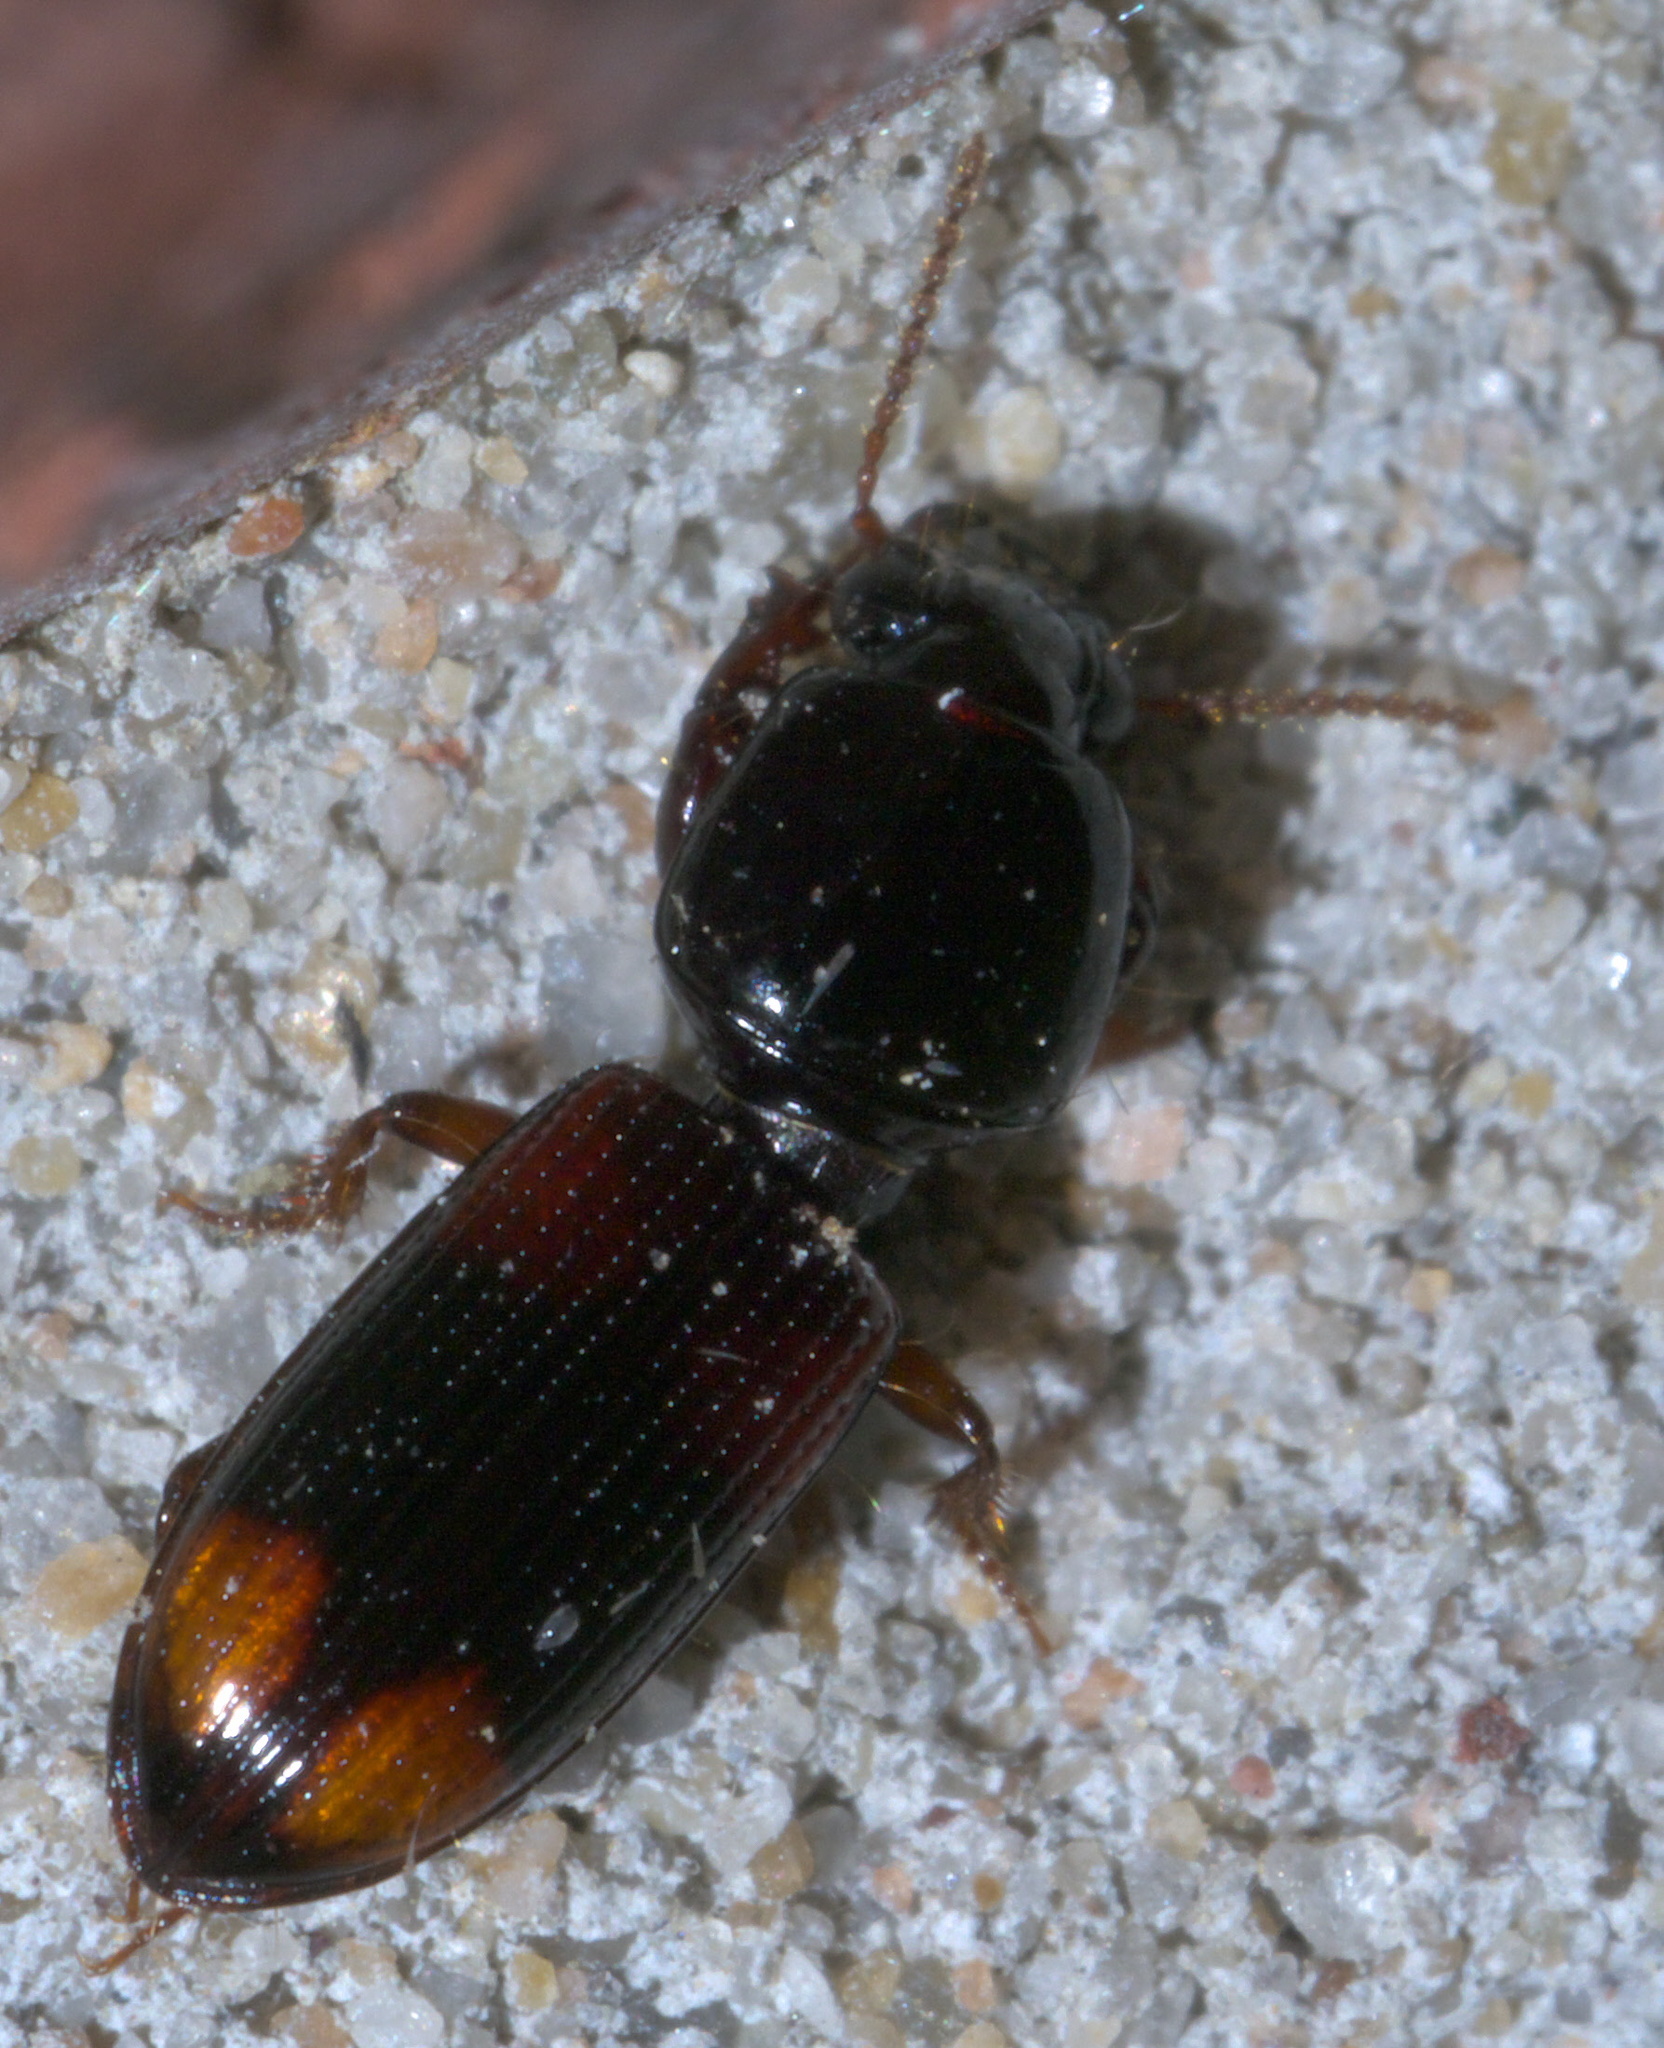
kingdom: Animalia
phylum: Arthropoda
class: Insecta
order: Coleoptera
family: Carabidae
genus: Clivina
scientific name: Clivina bipustulata
